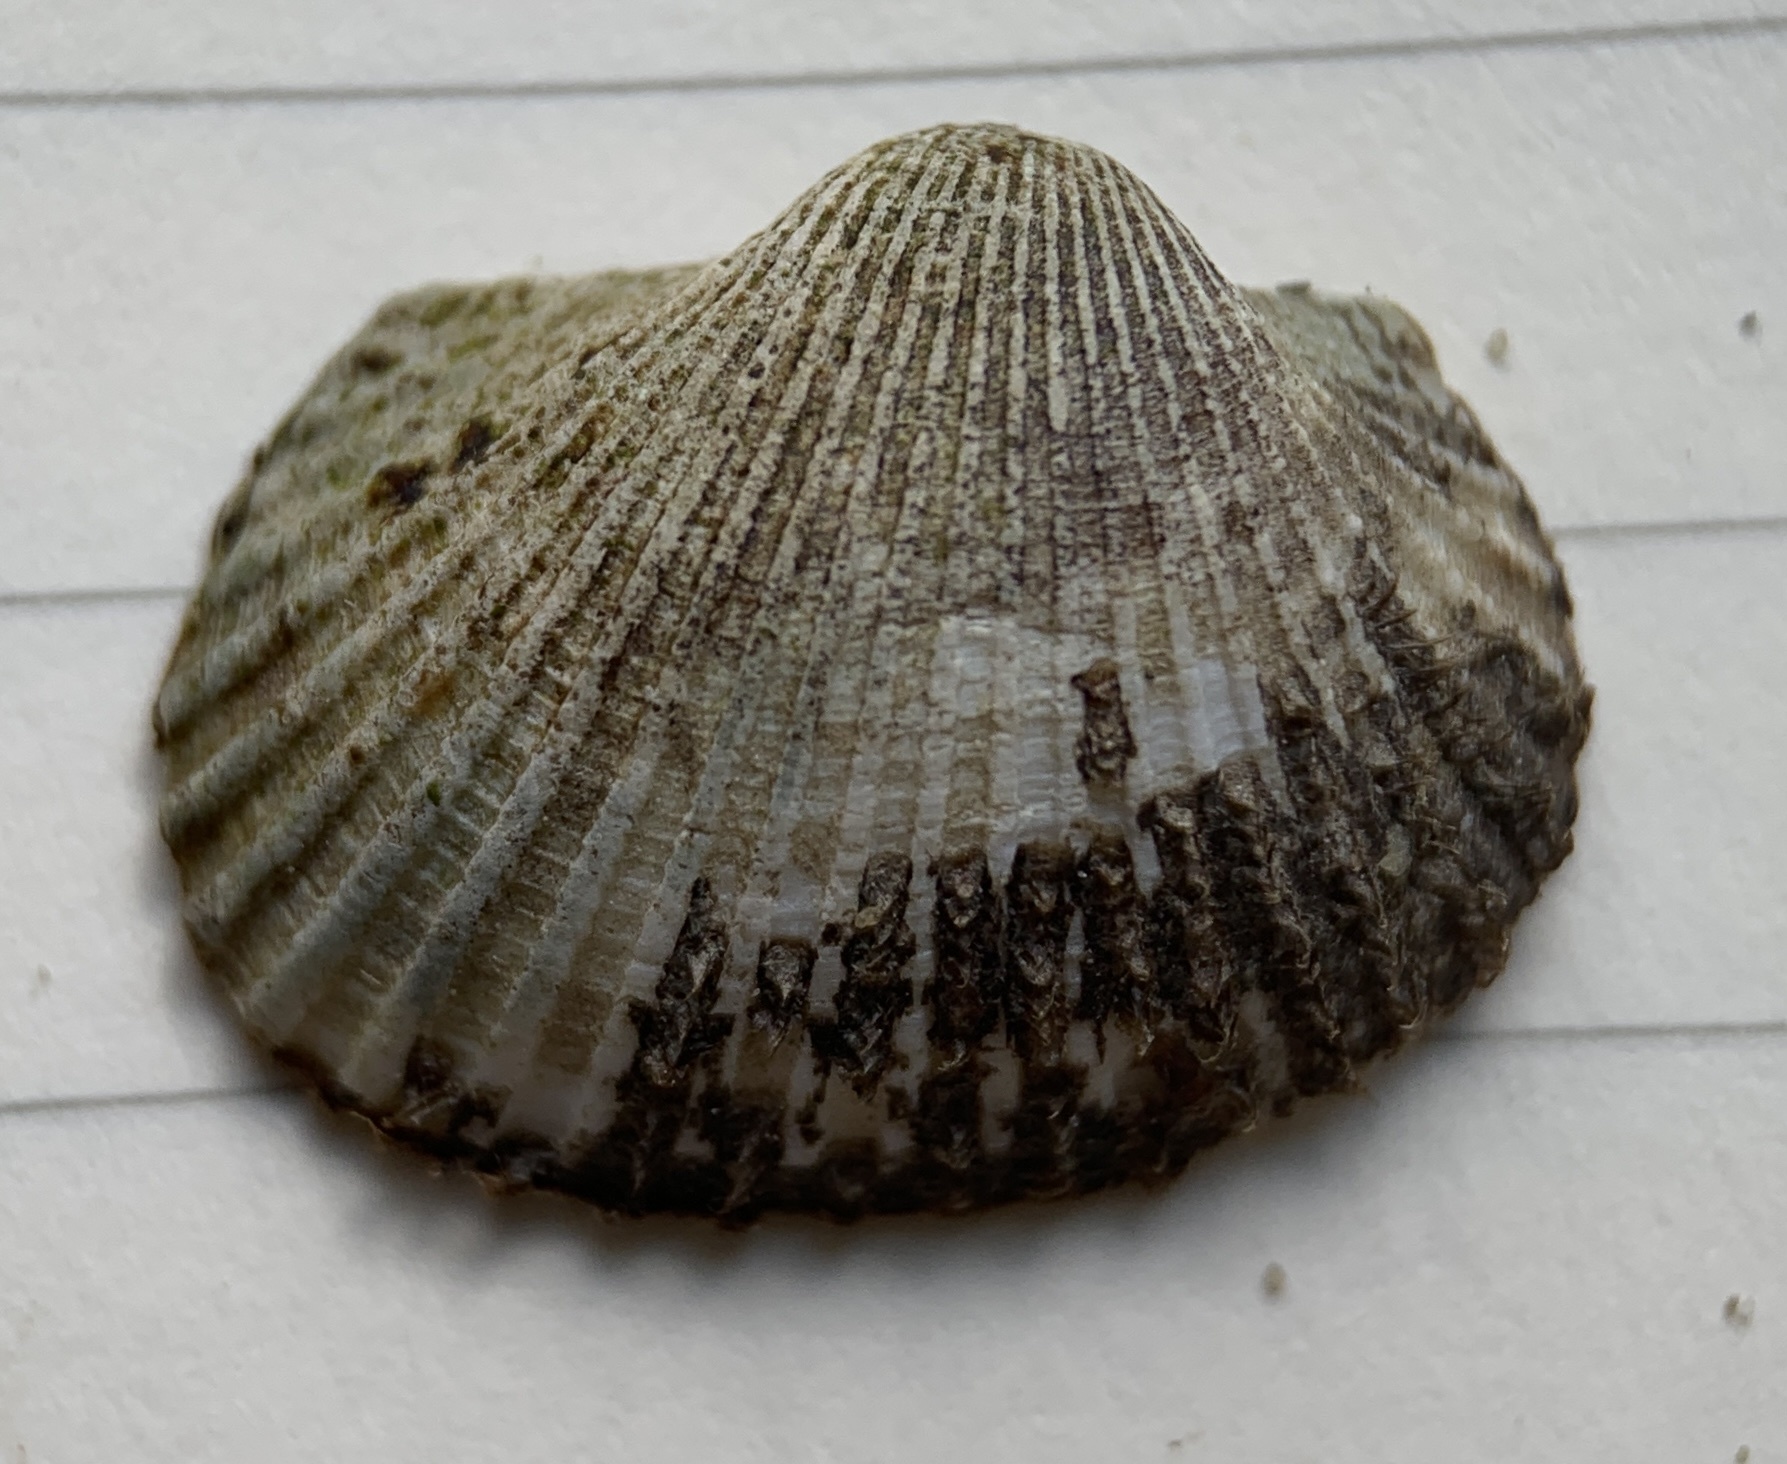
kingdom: Animalia
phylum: Mollusca
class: Bivalvia
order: Arcida
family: Arcidae
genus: Anadara
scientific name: Anadara transversa
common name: Transverse ark
